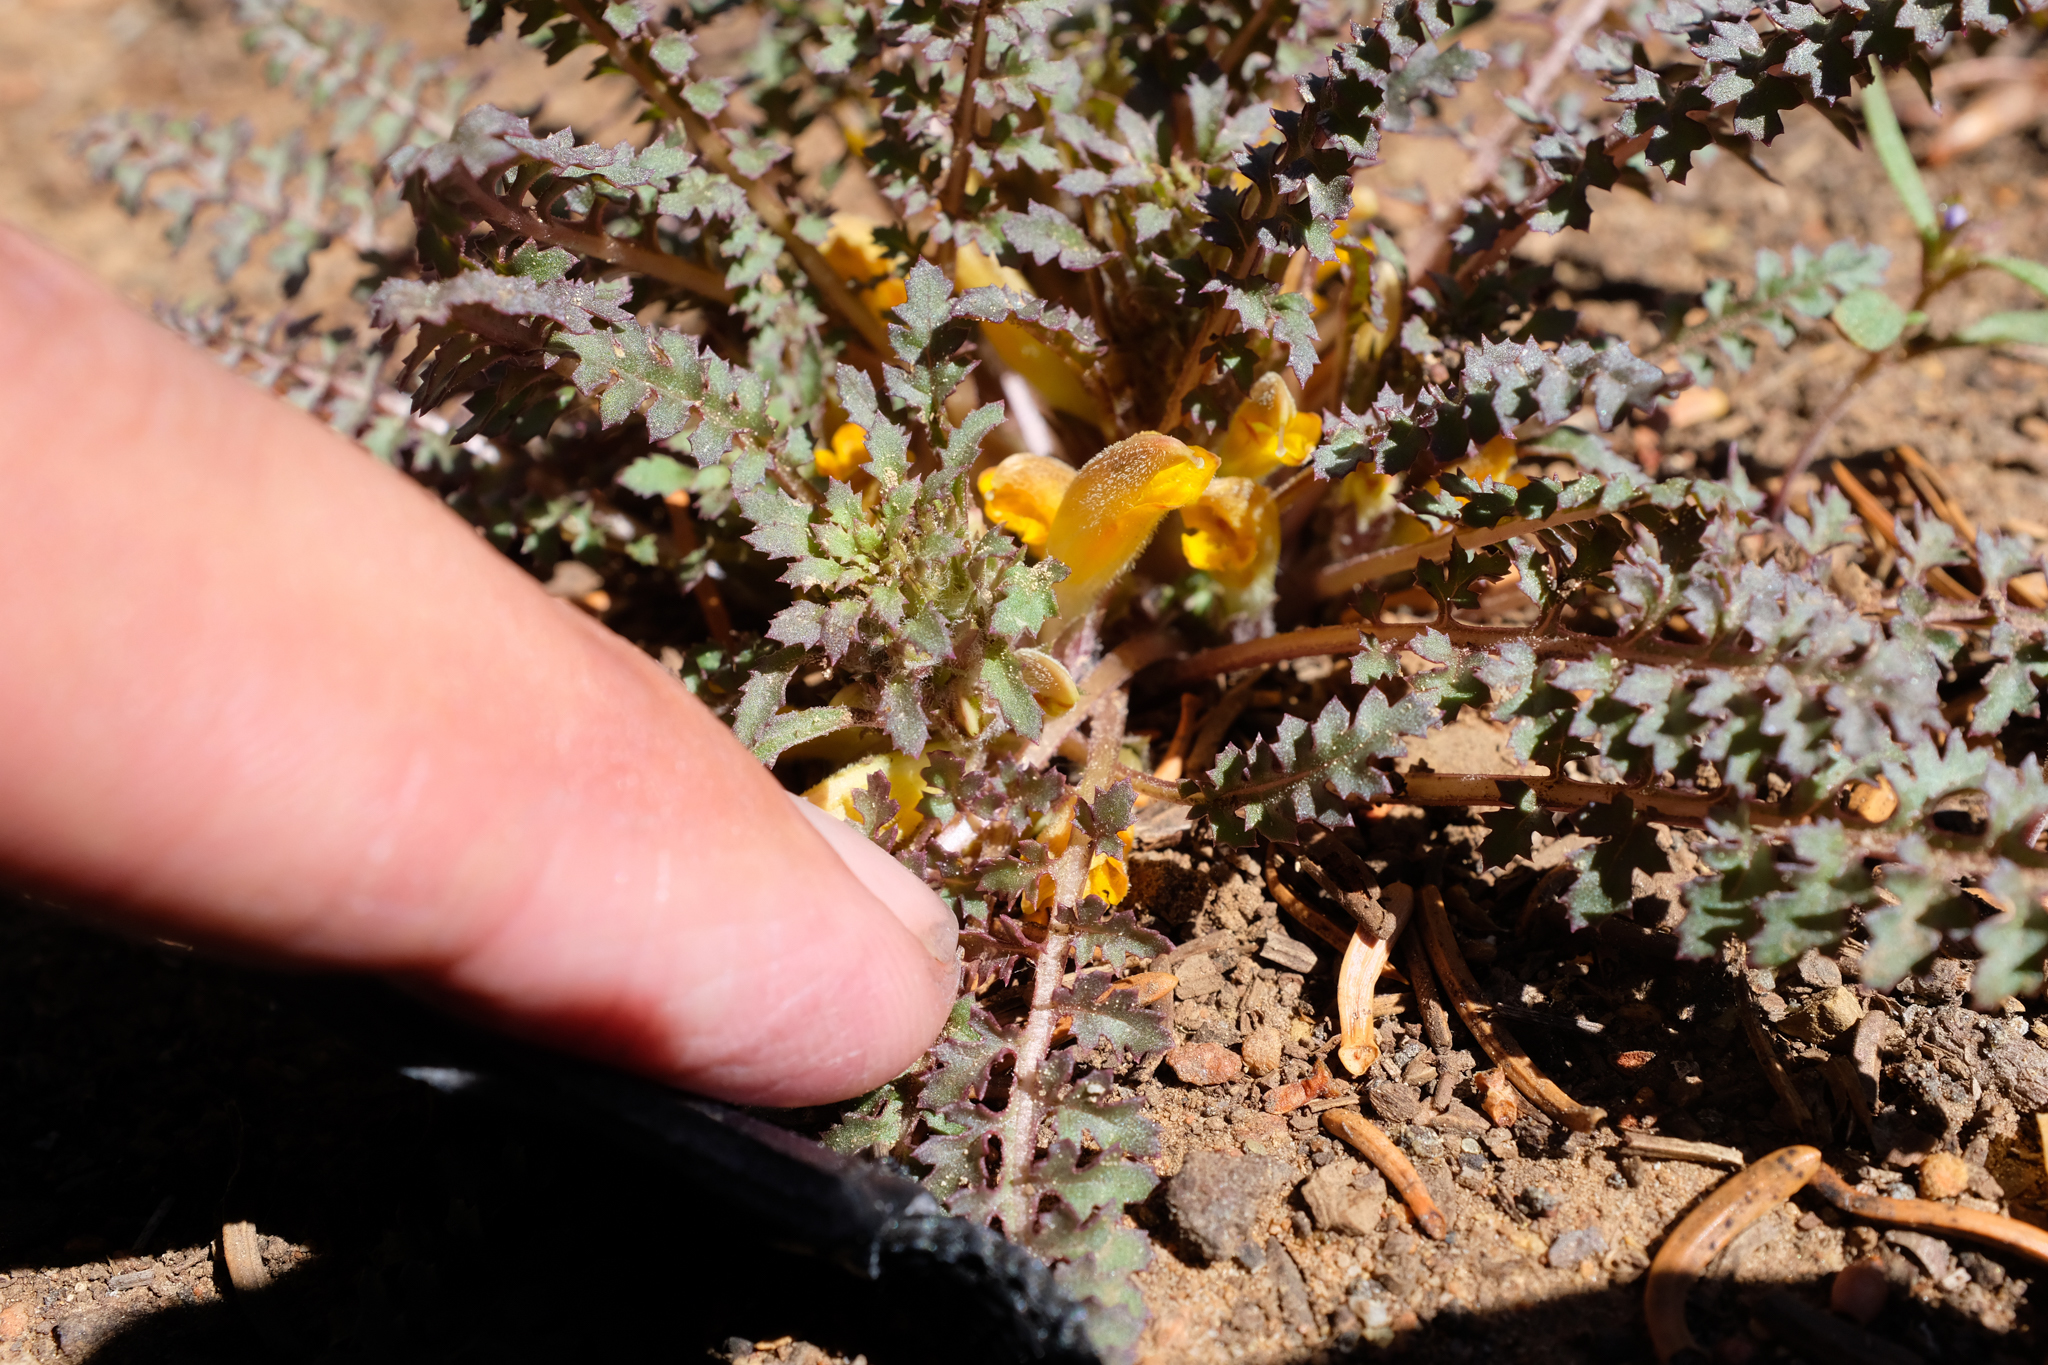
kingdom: Plantae
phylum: Tracheophyta
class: Magnoliopsida
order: Lamiales
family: Orobanchaceae
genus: Pedicularis
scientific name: Pedicularis semibarbata
